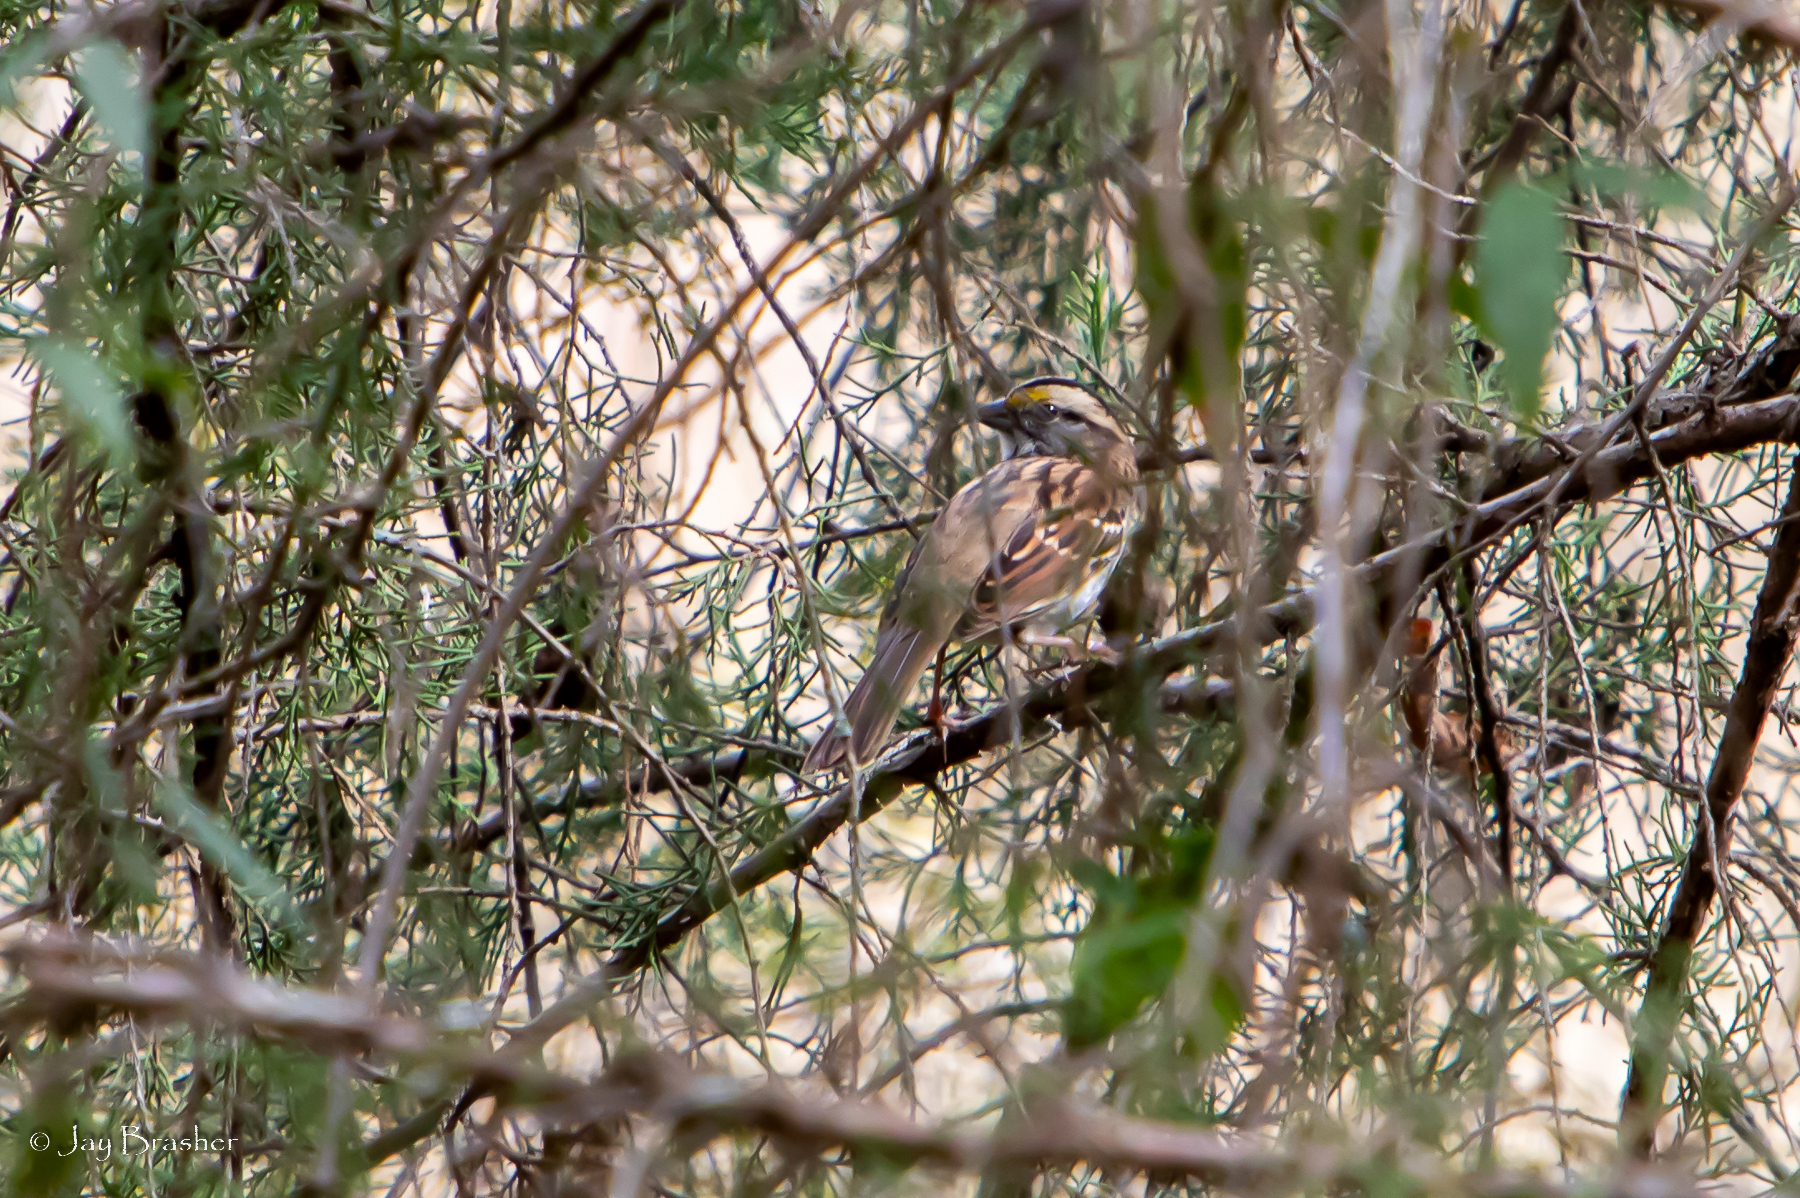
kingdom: Animalia
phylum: Chordata
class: Aves
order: Passeriformes
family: Passerellidae
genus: Zonotrichia
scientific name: Zonotrichia albicollis
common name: White-throated sparrow
